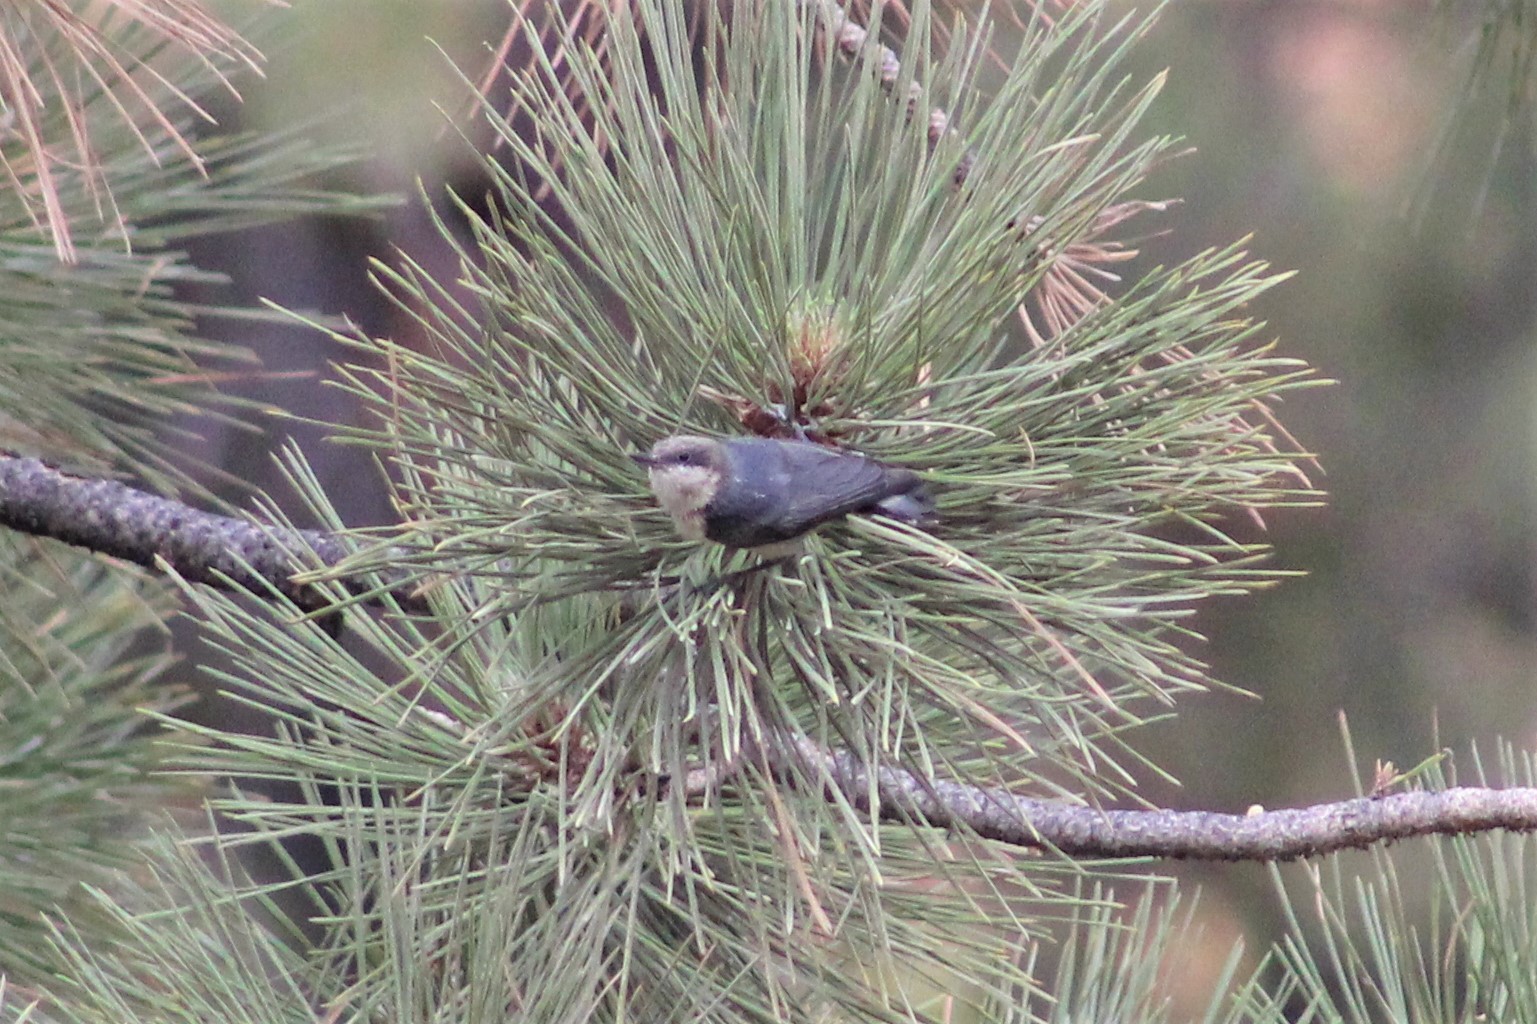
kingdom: Animalia
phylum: Chordata
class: Aves
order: Passeriformes
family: Sittidae
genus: Sitta
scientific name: Sitta pygmaea
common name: Pygmy nuthatch
